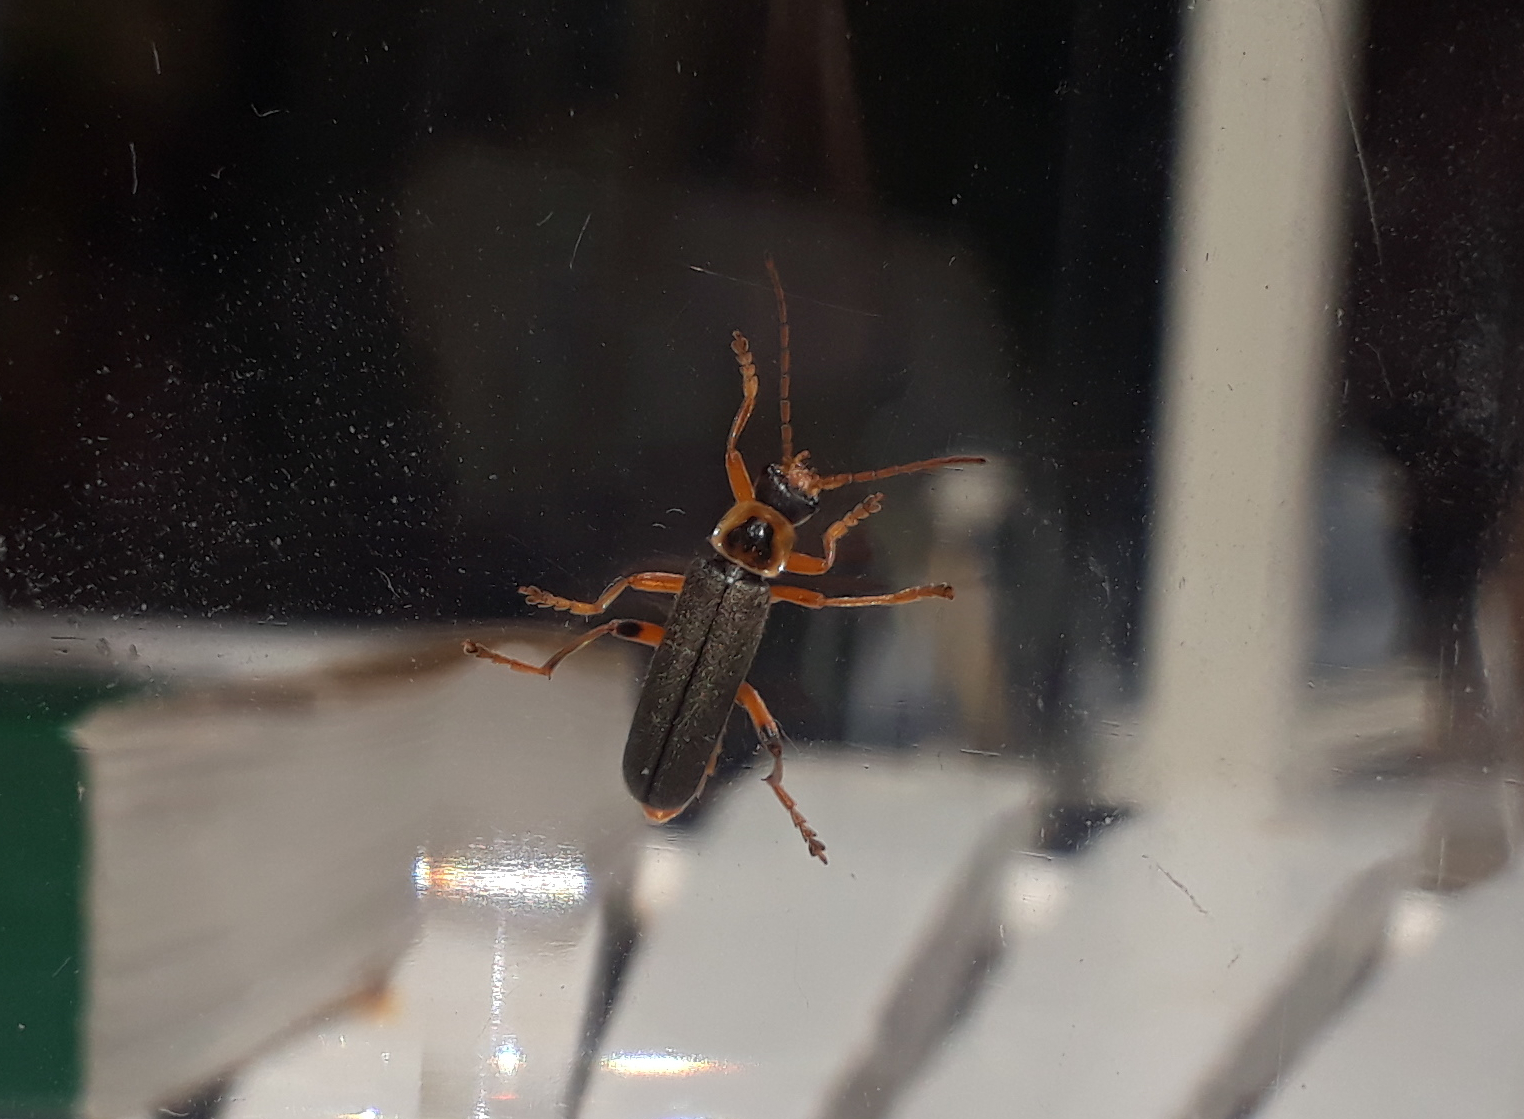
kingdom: Animalia
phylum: Arthropoda
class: Insecta
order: Coleoptera
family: Cantharidae
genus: Cantharis
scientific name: Cantharis nigricans
